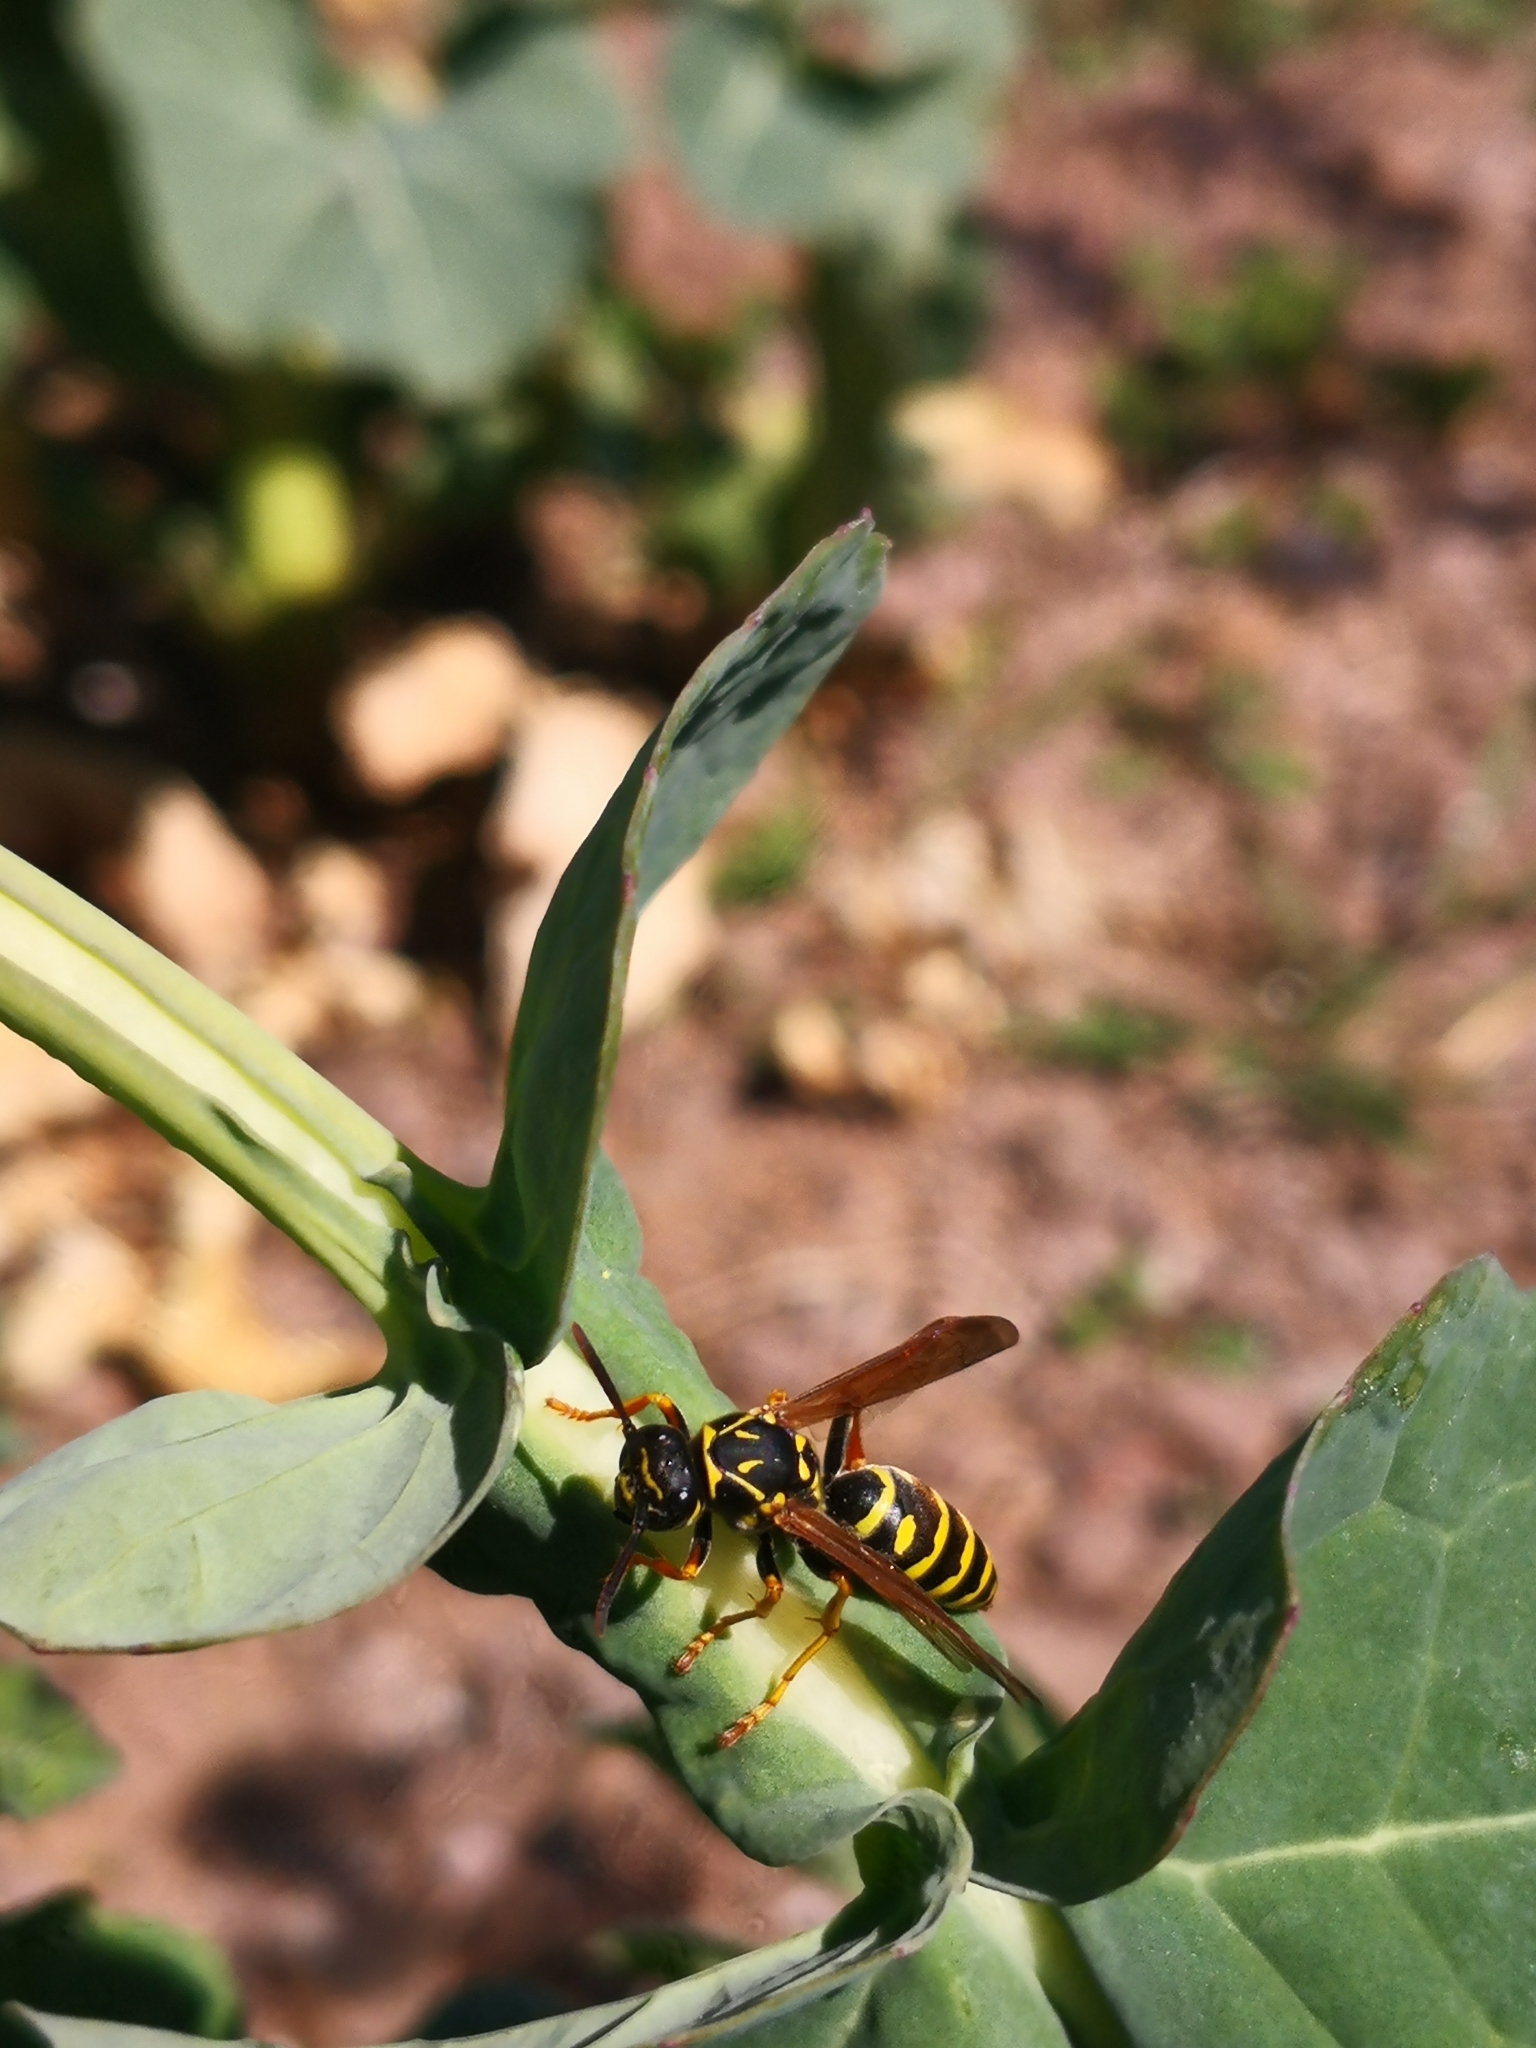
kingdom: Animalia
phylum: Arthropoda
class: Insecta
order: Hymenoptera
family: Eumenidae
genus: Polistes
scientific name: Polistes nimpha
